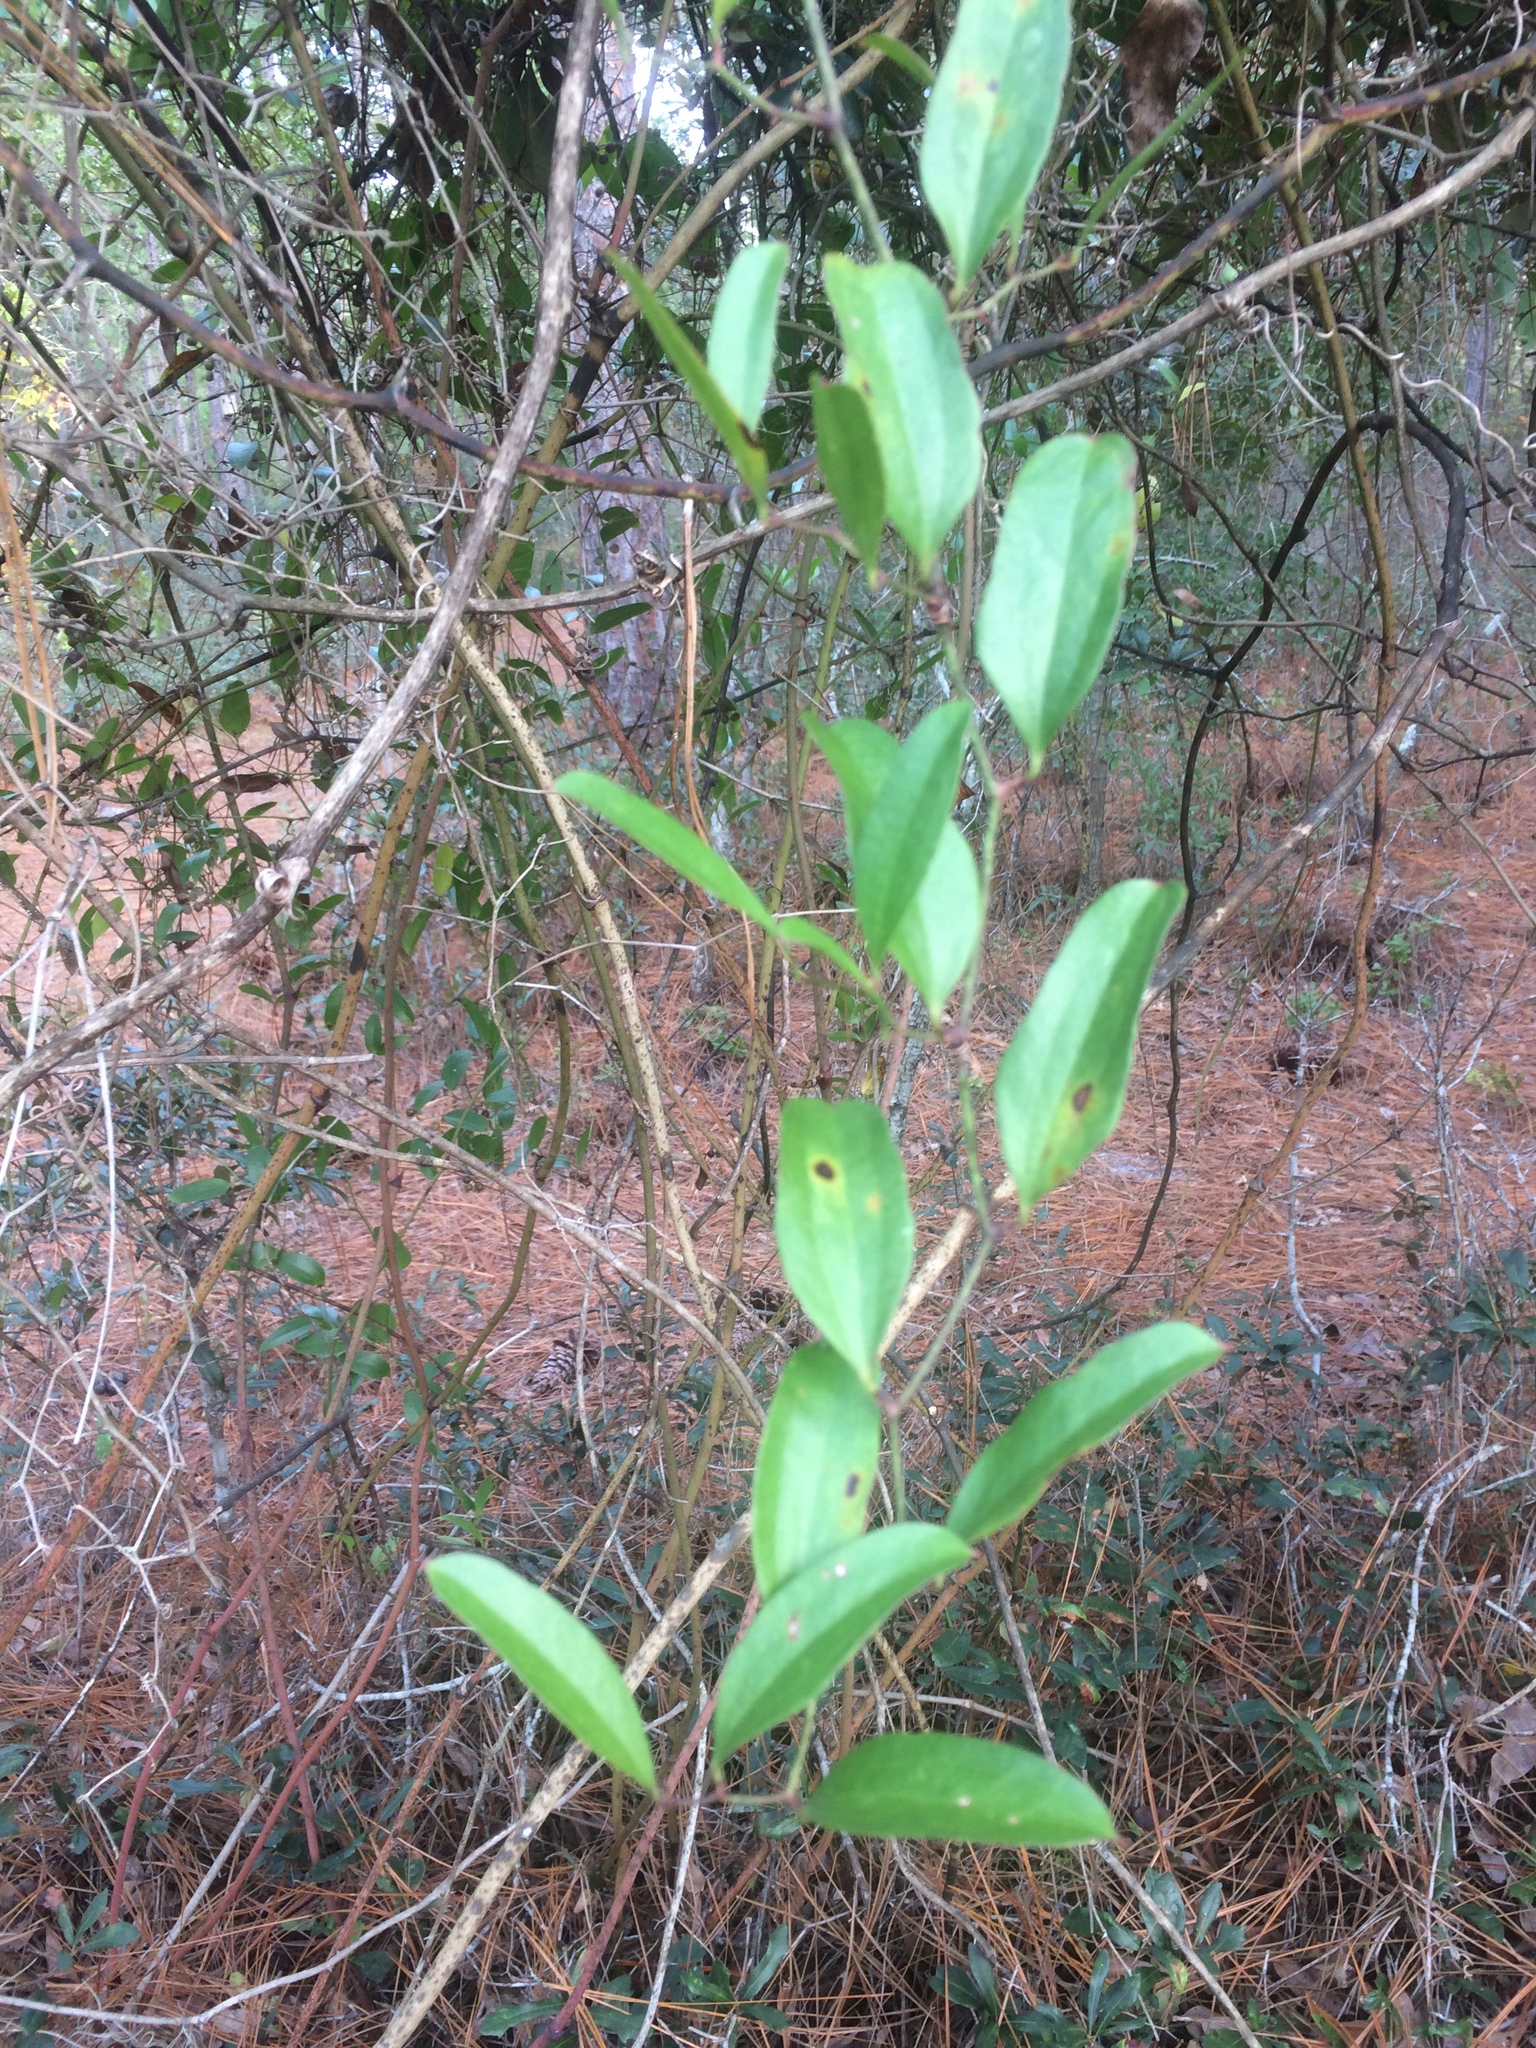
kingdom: Plantae
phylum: Tracheophyta
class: Liliopsida
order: Liliales
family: Smilacaceae
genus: Smilax
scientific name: Smilax auriculata
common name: Wild bamboo
